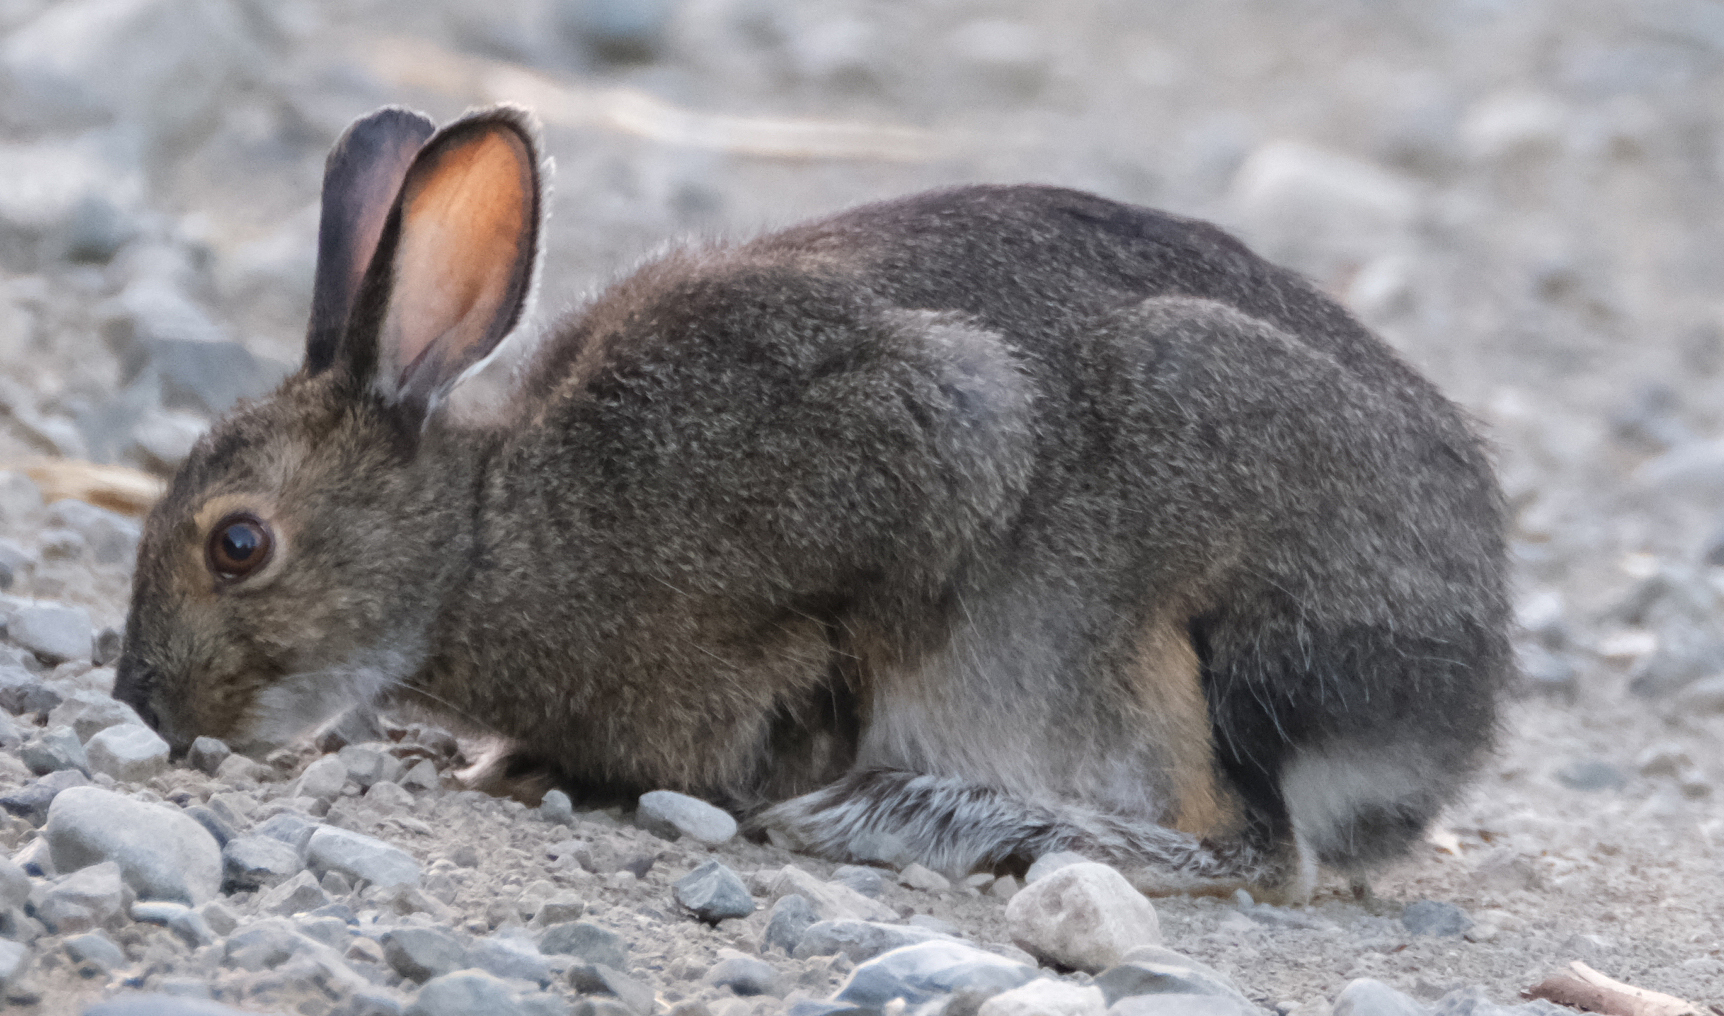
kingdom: Animalia
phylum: Chordata
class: Mammalia
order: Lagomorpha
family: Leporidae
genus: Lepus
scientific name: Lepus americanus
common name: Snowshoe hare
